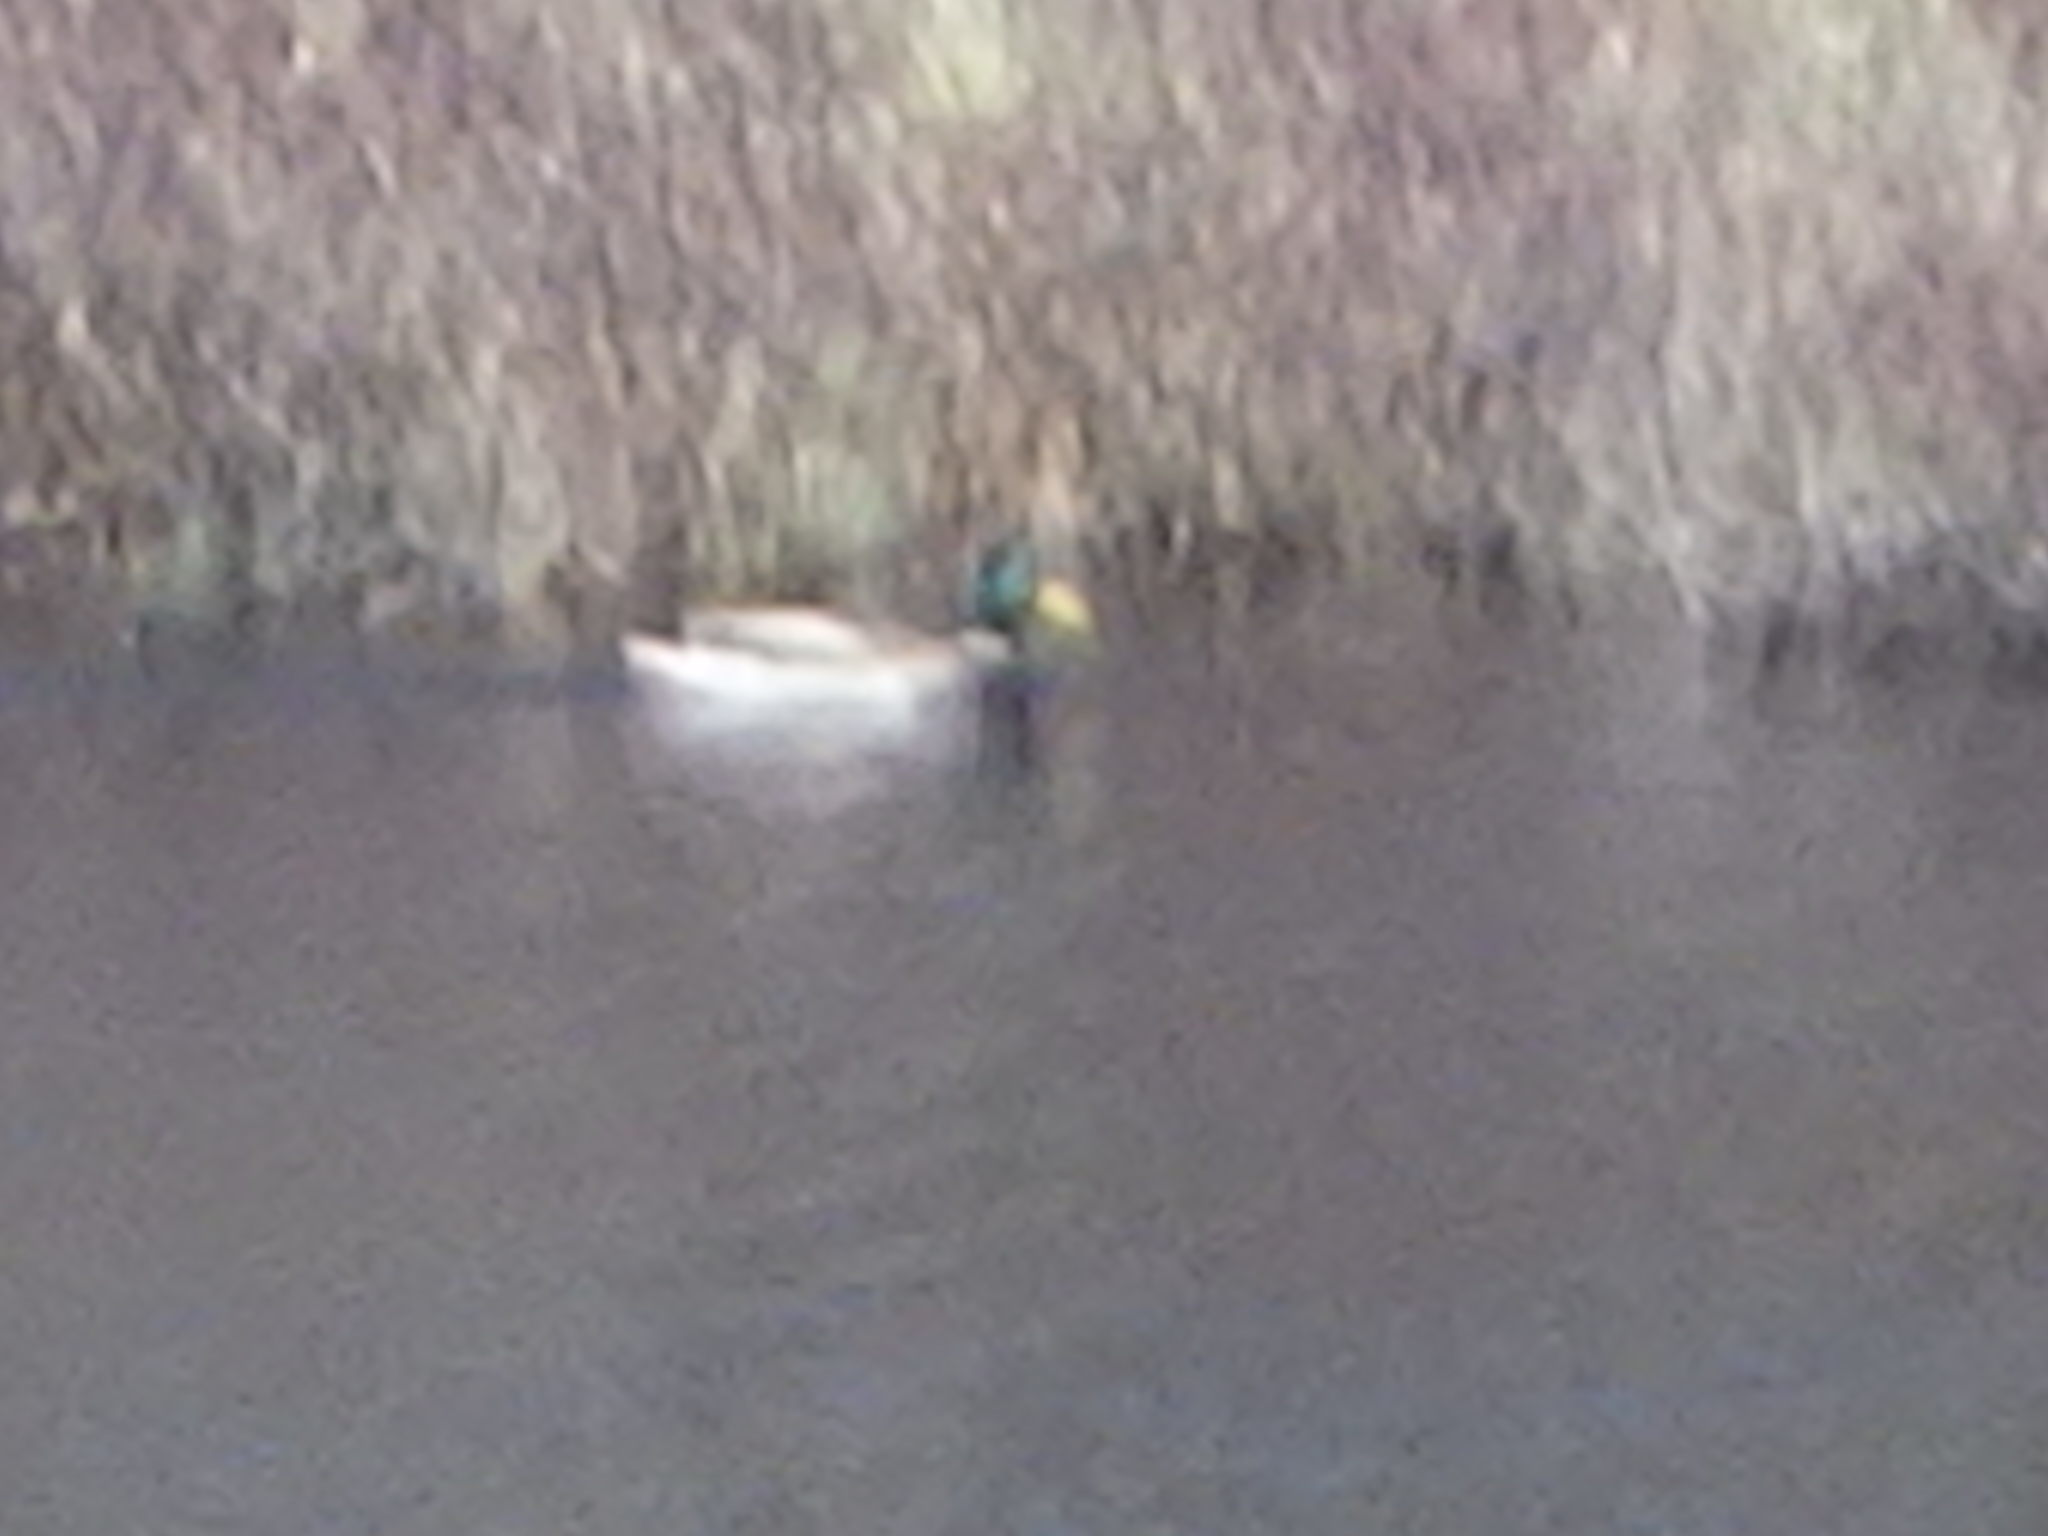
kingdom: Animalia
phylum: Chordata
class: Aves
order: Anseriformes
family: Anatidae
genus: Anas
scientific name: Anas platyrhynchos
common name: Mallard
